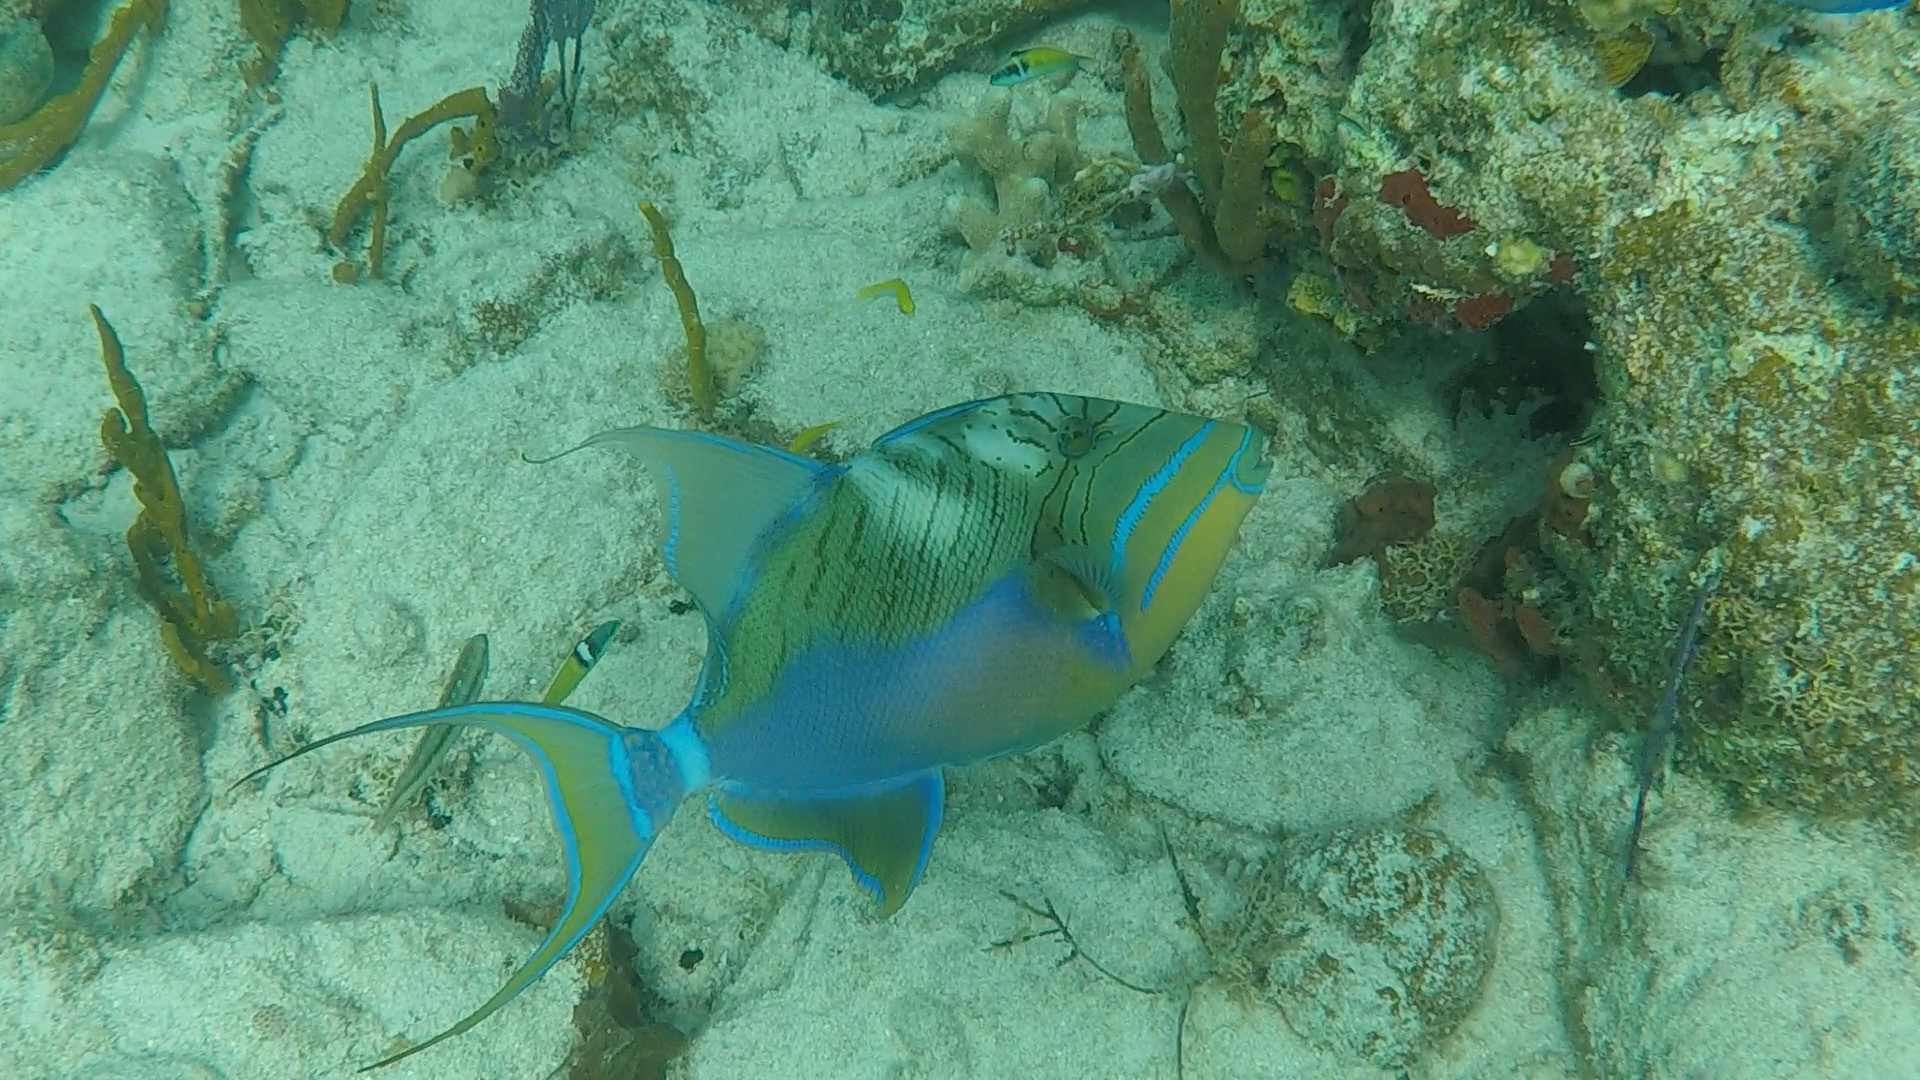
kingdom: Animalia
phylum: Chordata
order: Tetraodontiformes
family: Balistidae
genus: Balistes
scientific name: Balistes vetula
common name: Queen triggerfish
